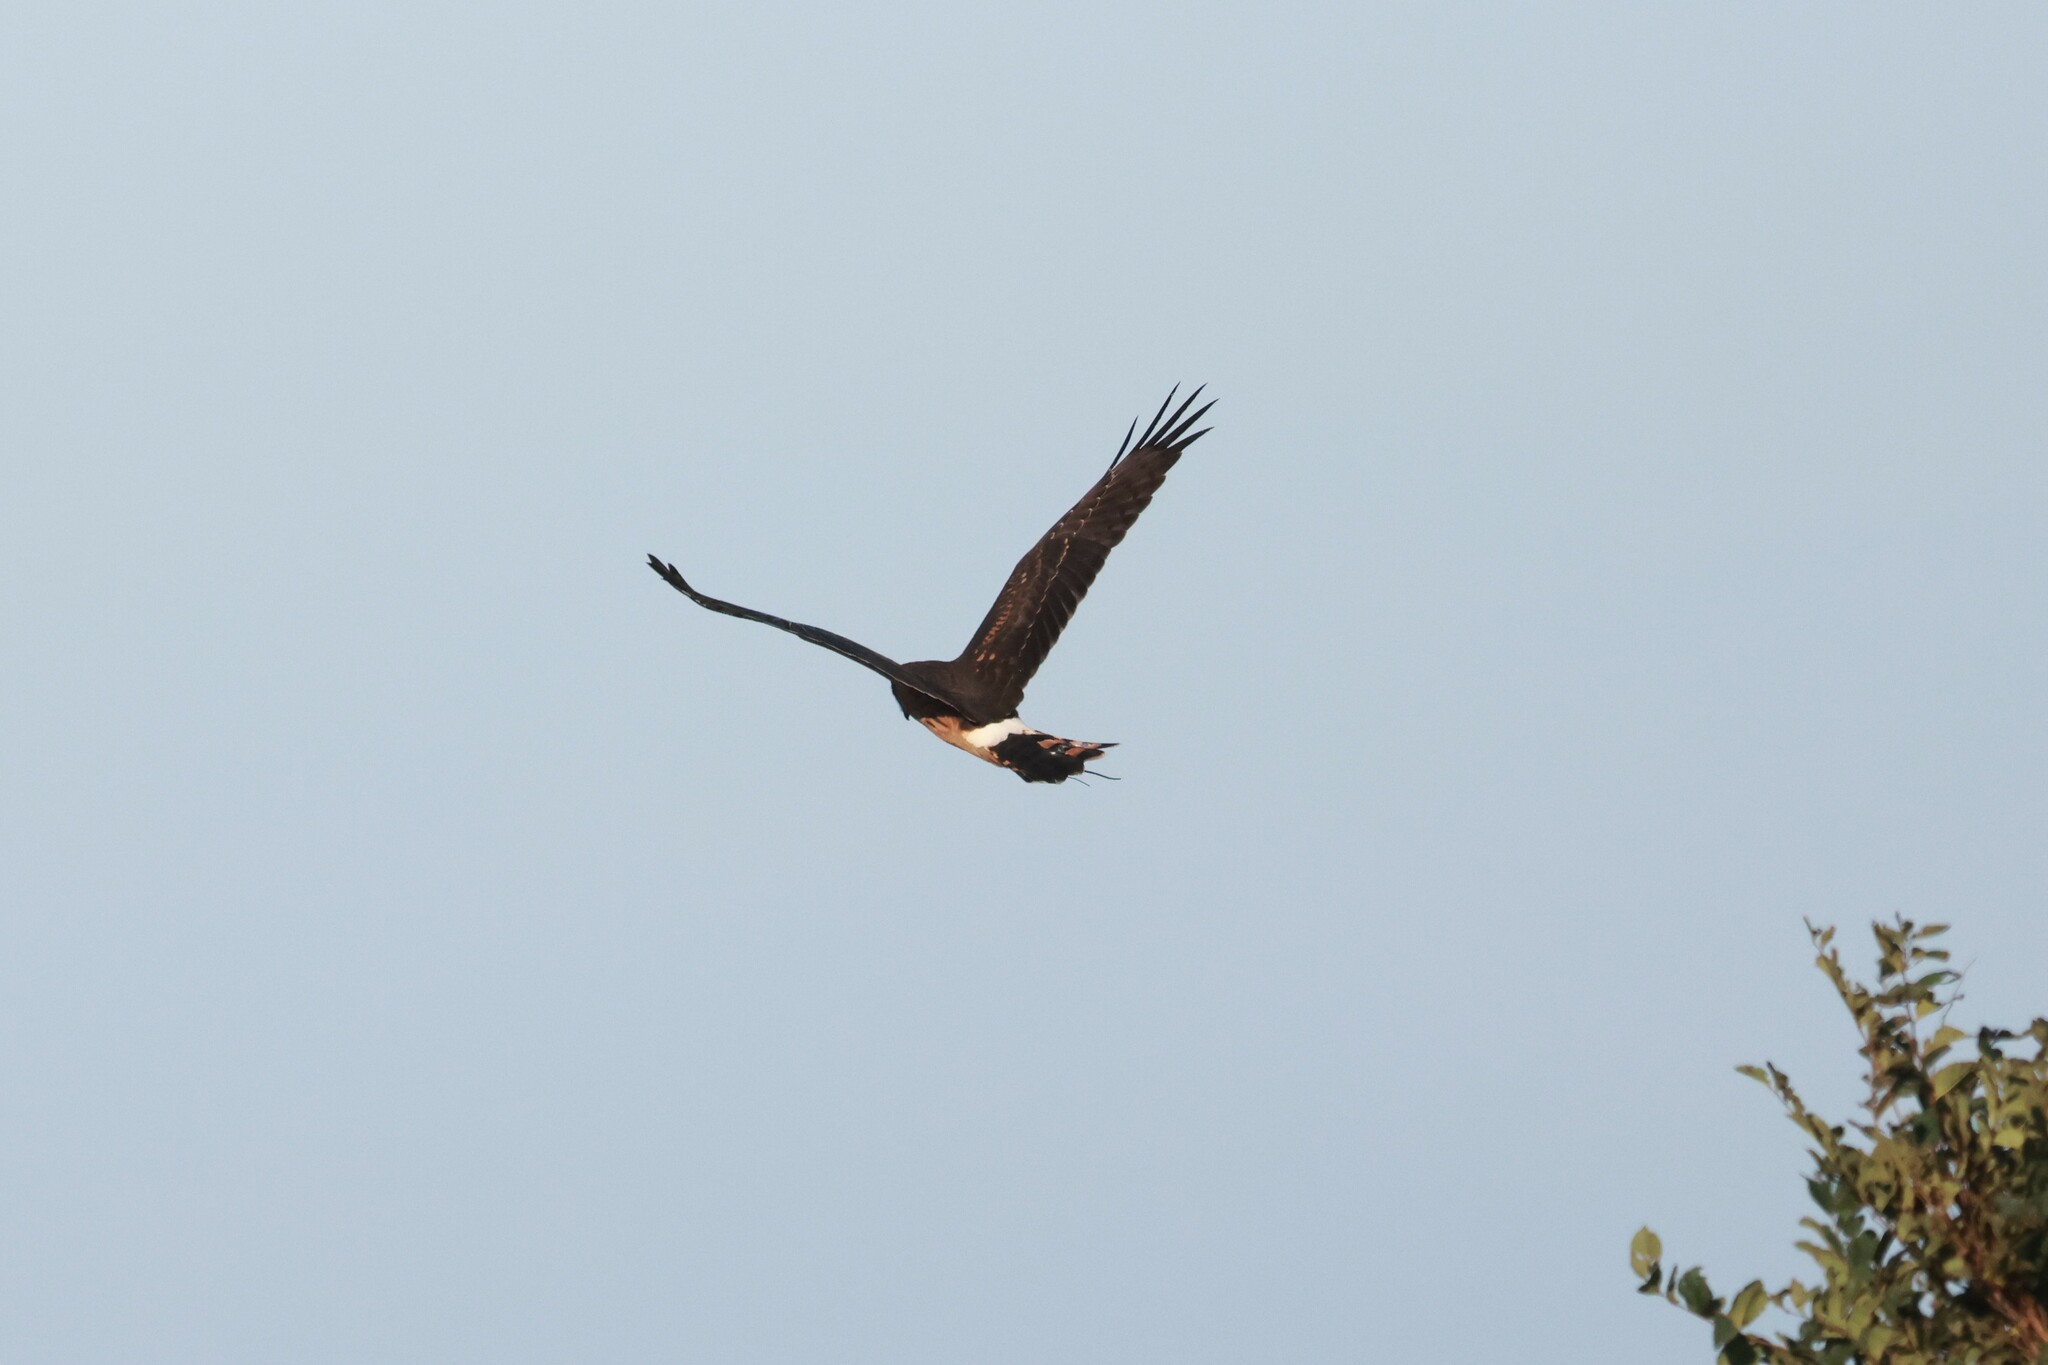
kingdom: Animalia
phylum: Chordata
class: Aves
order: Accipitriformes
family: Accipitridae
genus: Circus
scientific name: Circus cyaneus
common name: Hen harrier
